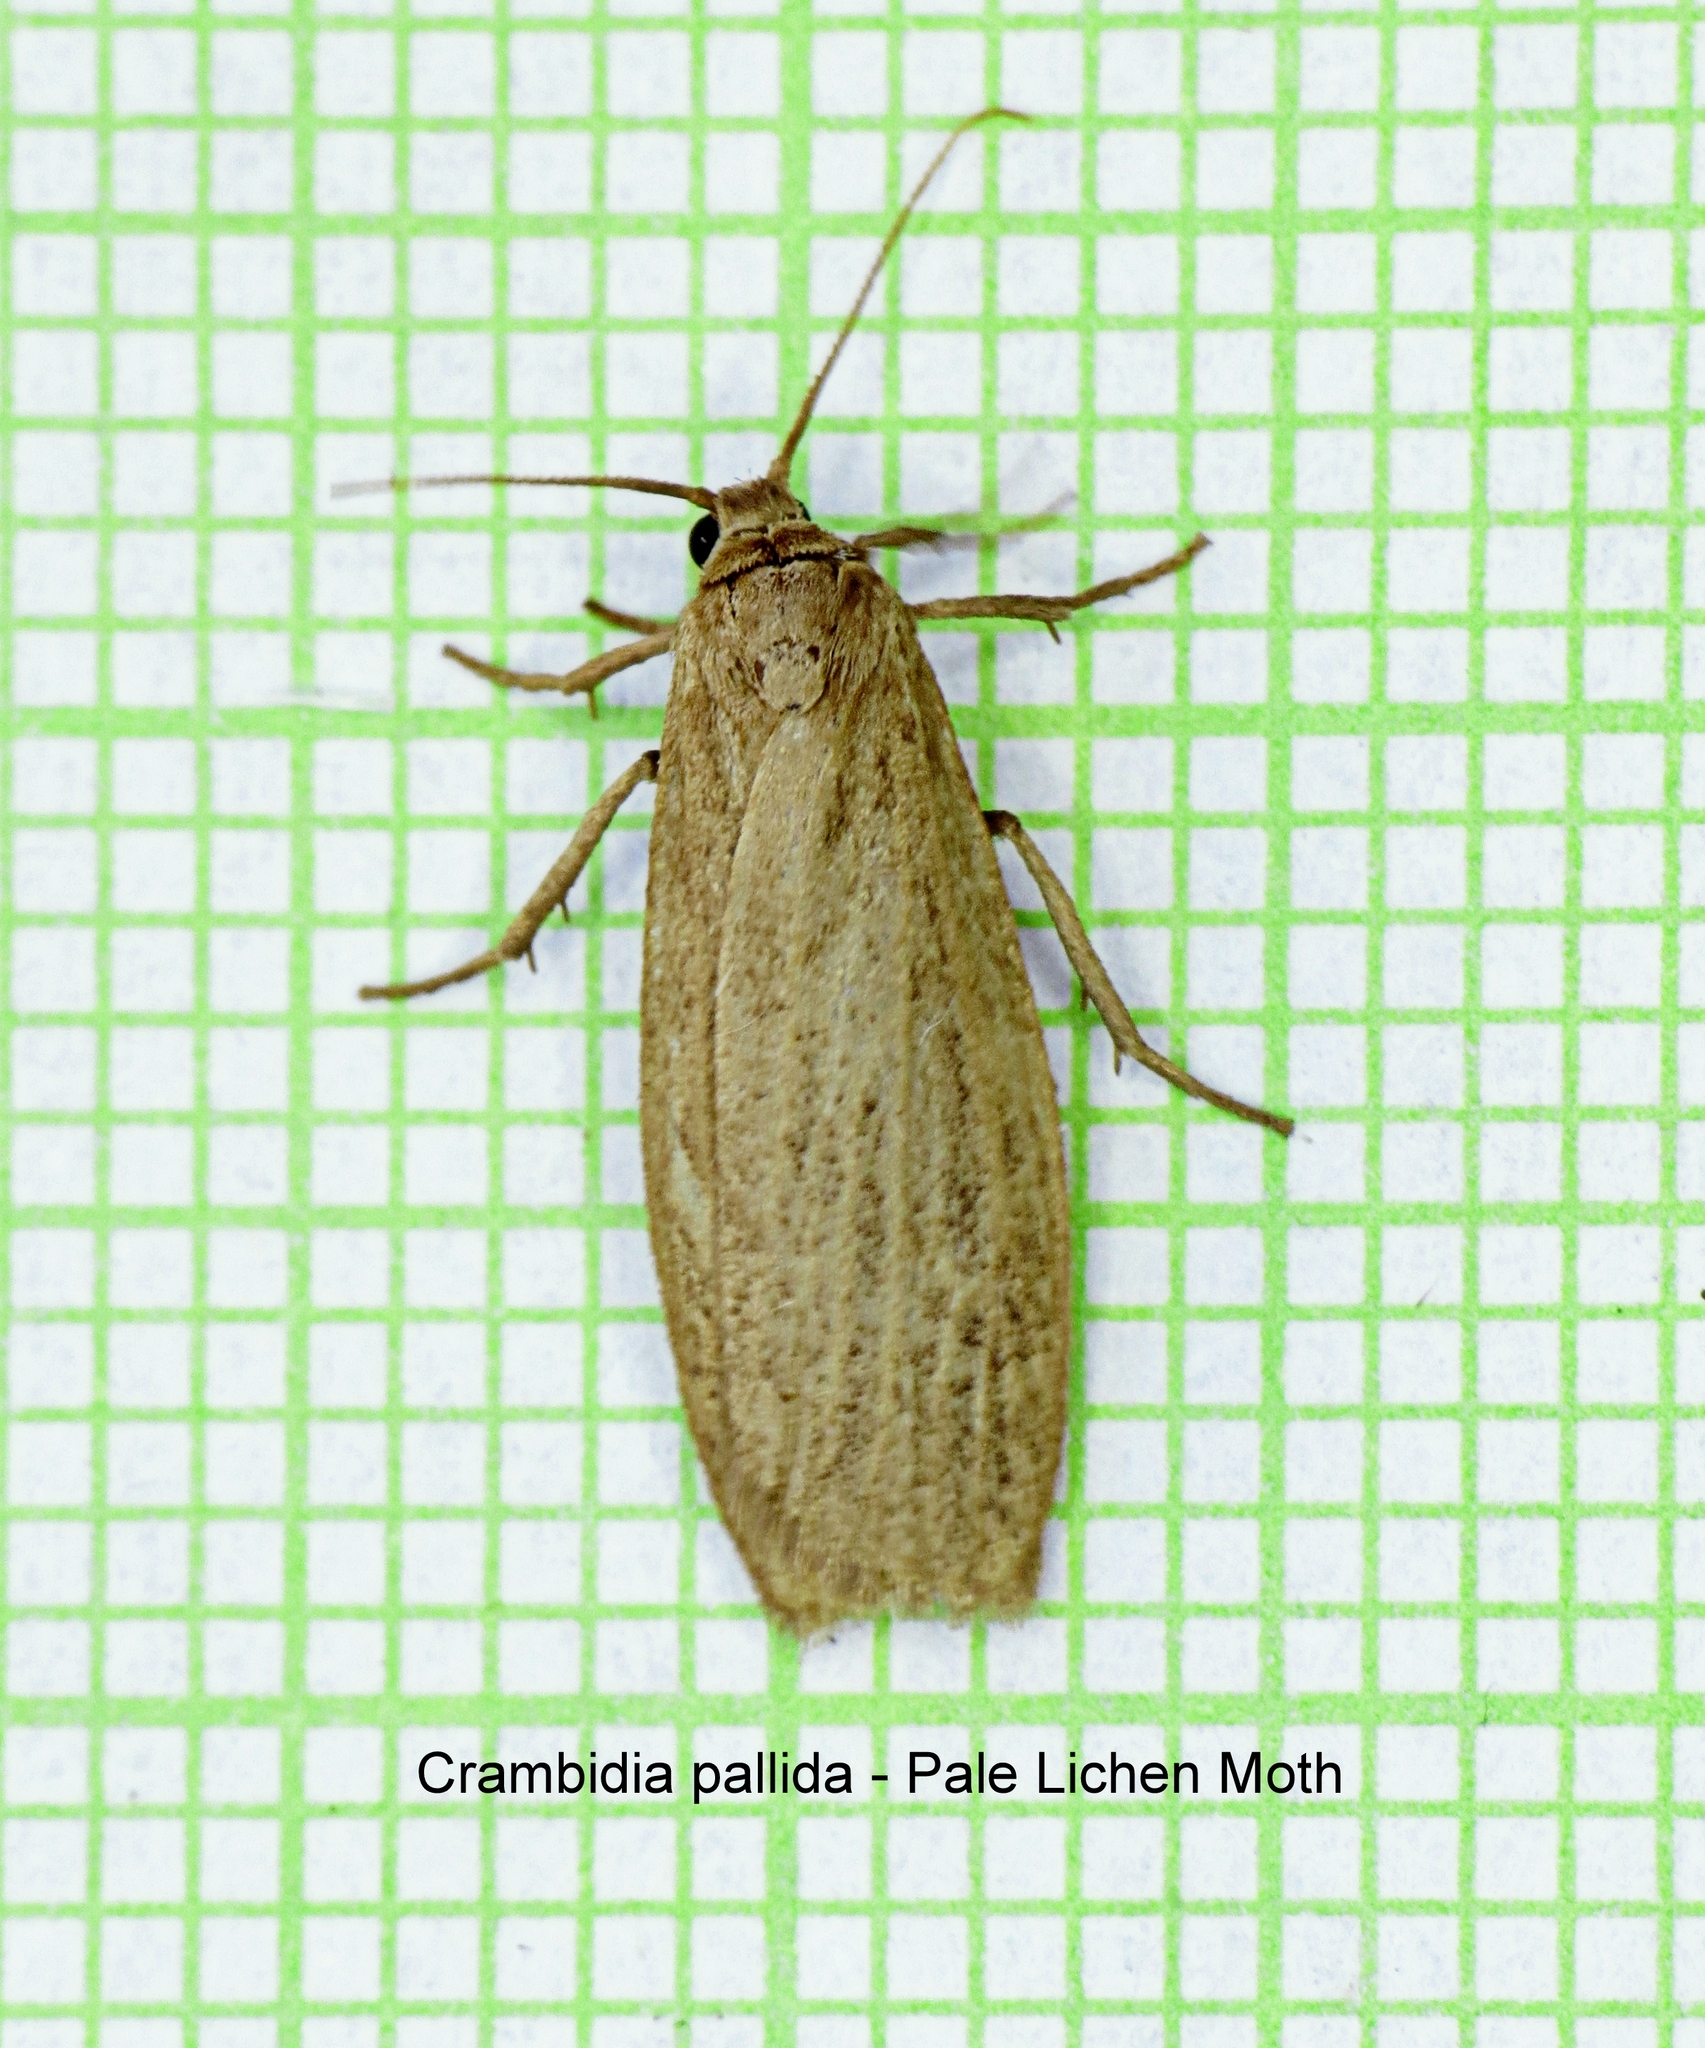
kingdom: Animalia
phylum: Arthropoda
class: Insecta
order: Lepidoptera
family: Erebidae
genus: Crambidia
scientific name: Crambidia pallida
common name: Pale lichen moth
